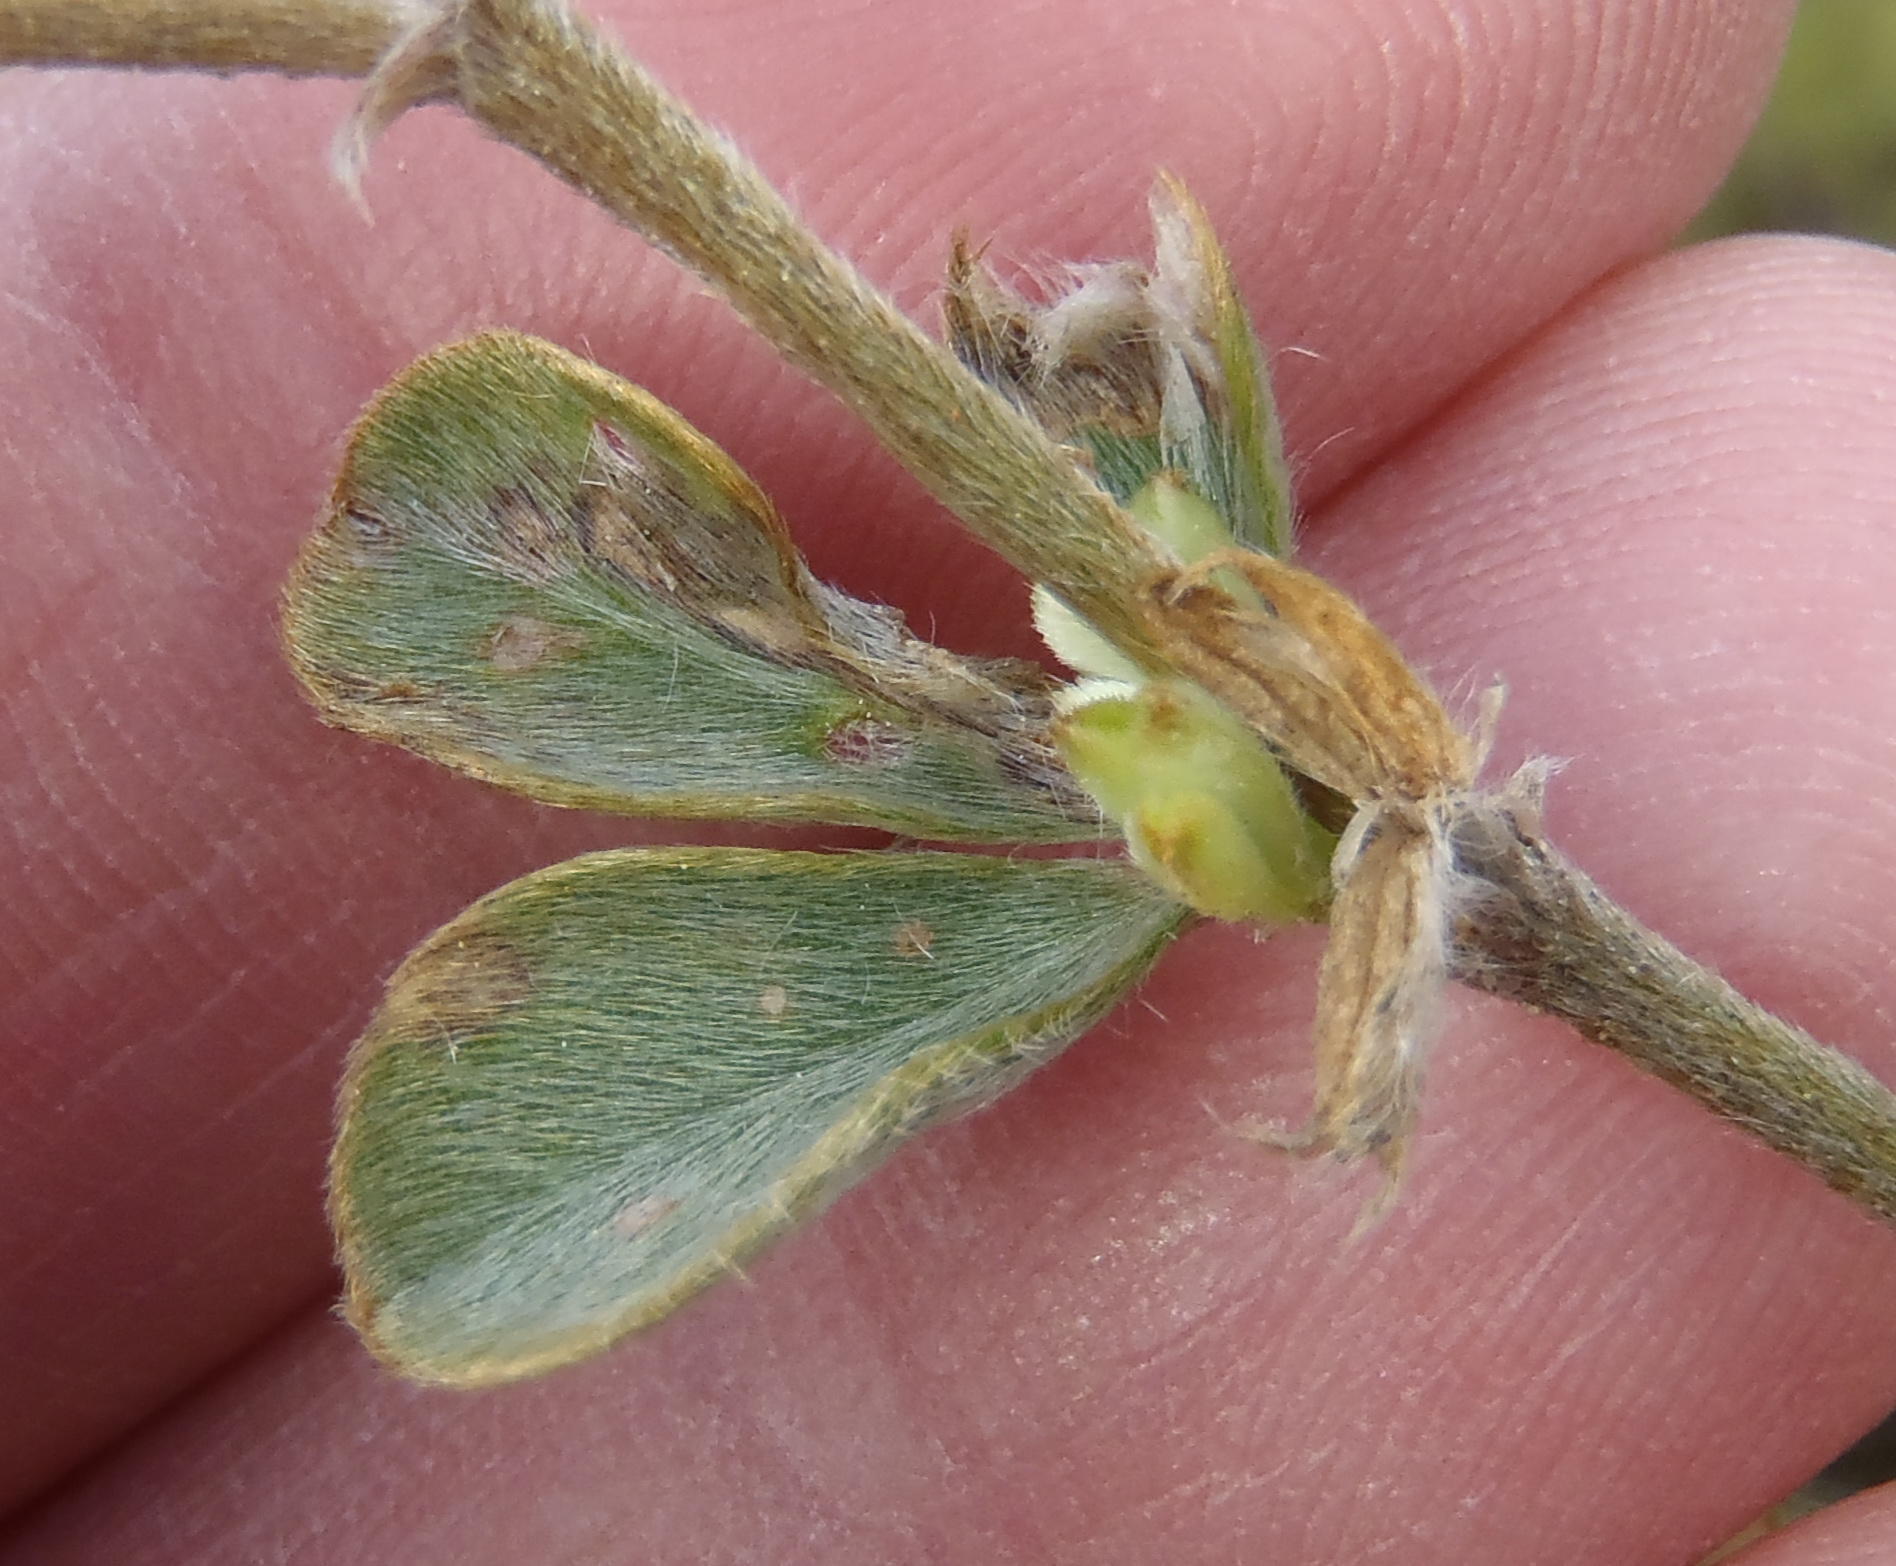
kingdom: Plantae
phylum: Tracheophyta
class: Magnoliopsida
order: Fabales
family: Fabaceae
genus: Argyrolobium
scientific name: Argyrolobium collinum
